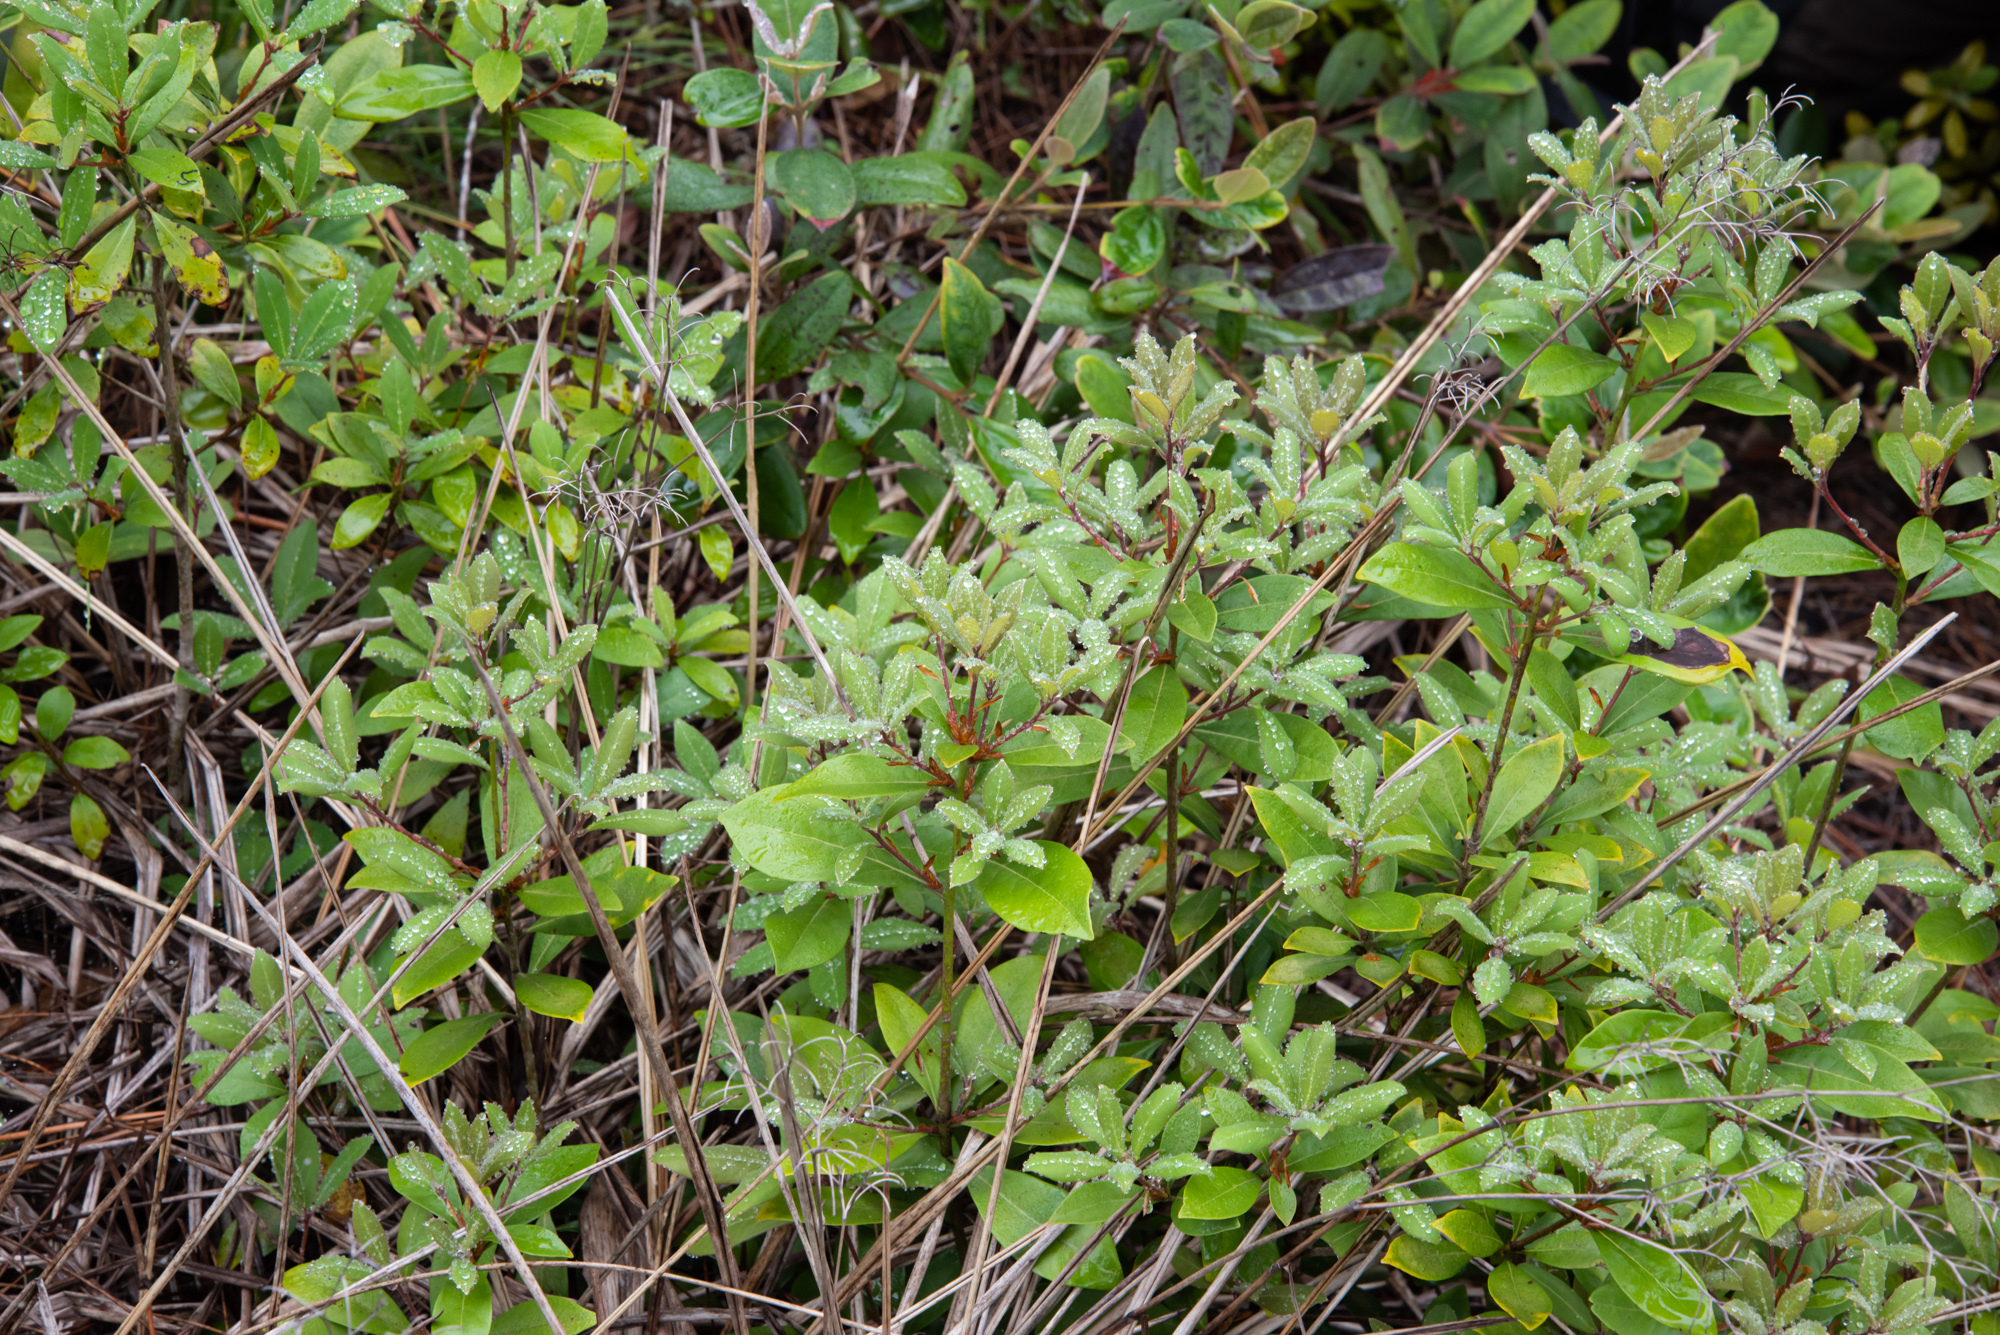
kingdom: Plantae
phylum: Tracheophyta
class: Magnoliopsida
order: Laurales
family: Lauraceae
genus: Litsea
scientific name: Litsea rotundifolia
